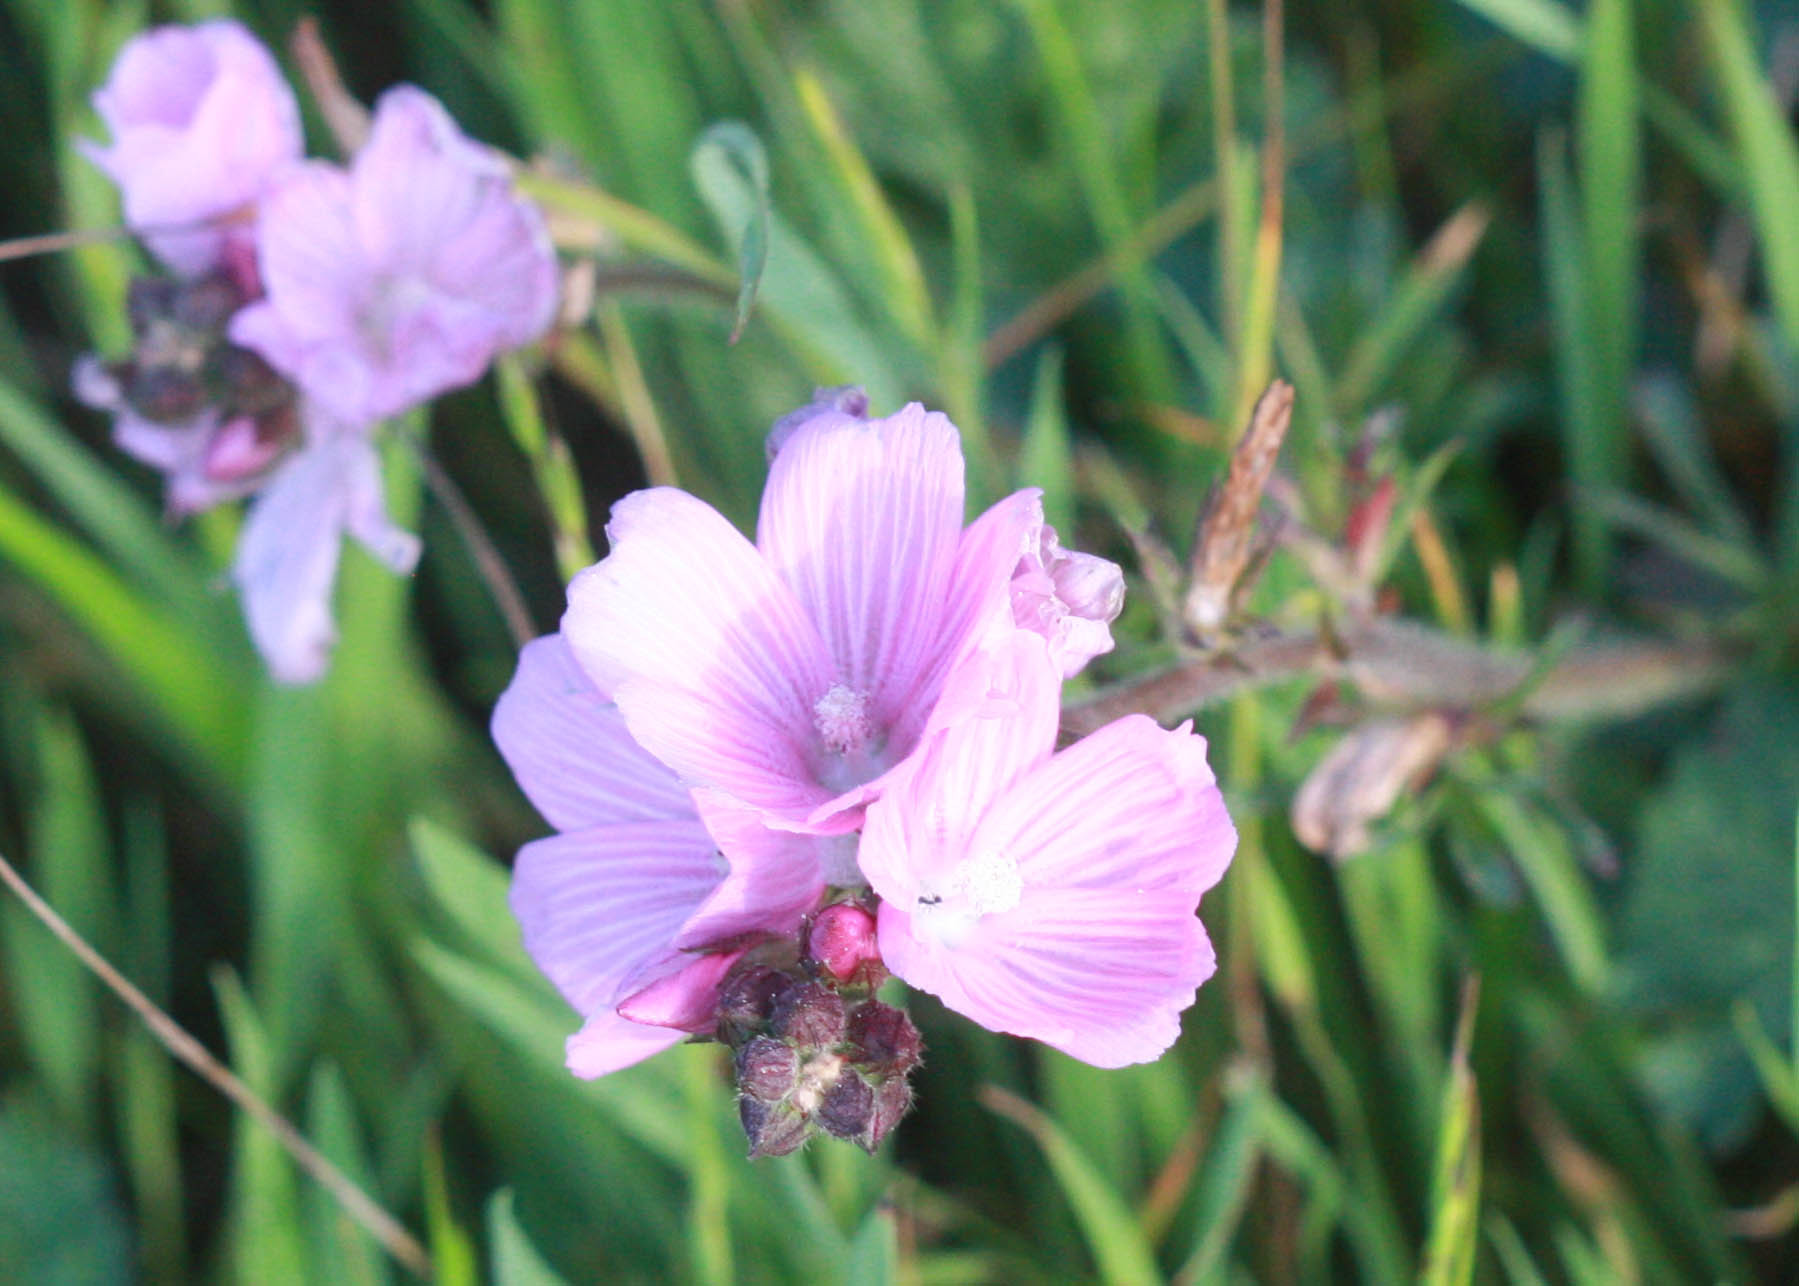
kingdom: Plantae
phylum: Tracheophyta
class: Magnoliopsida
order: Malvales
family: Malvaceae
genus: Sidalcea
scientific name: Sidalcea malviflora
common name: Greek mallow
